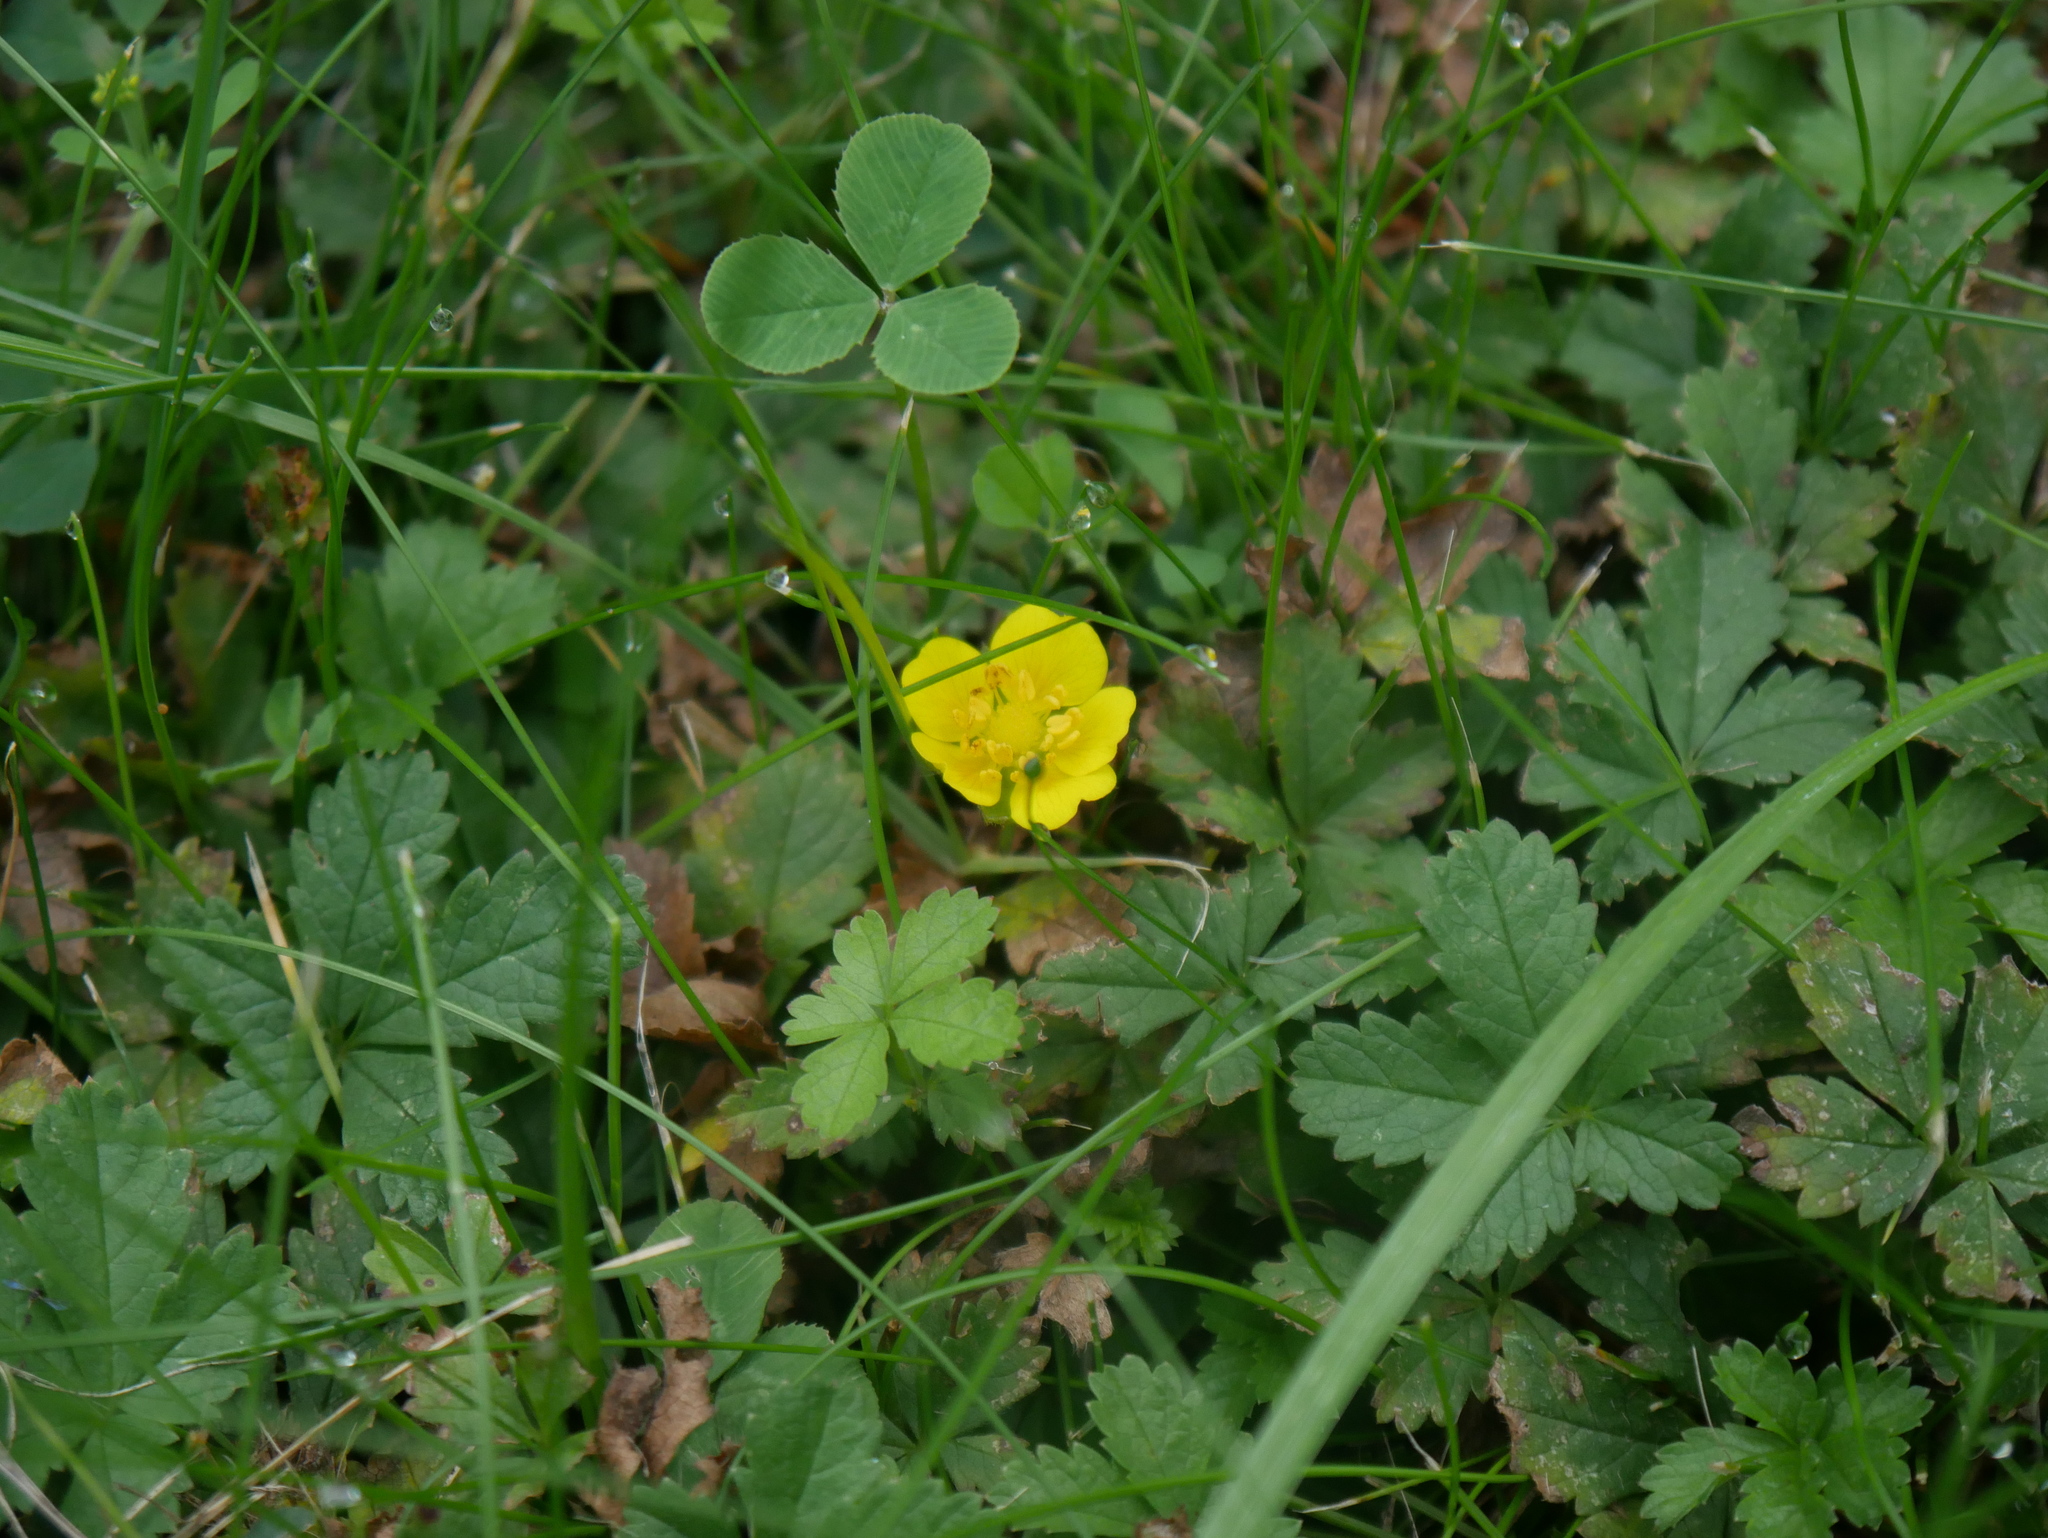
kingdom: Plantae
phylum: Tracheophyta
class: Magnoliopsida
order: Rosales
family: Rosaceae
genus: Potentilla
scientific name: Potentilla reptans
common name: Creeping cinquefoil
